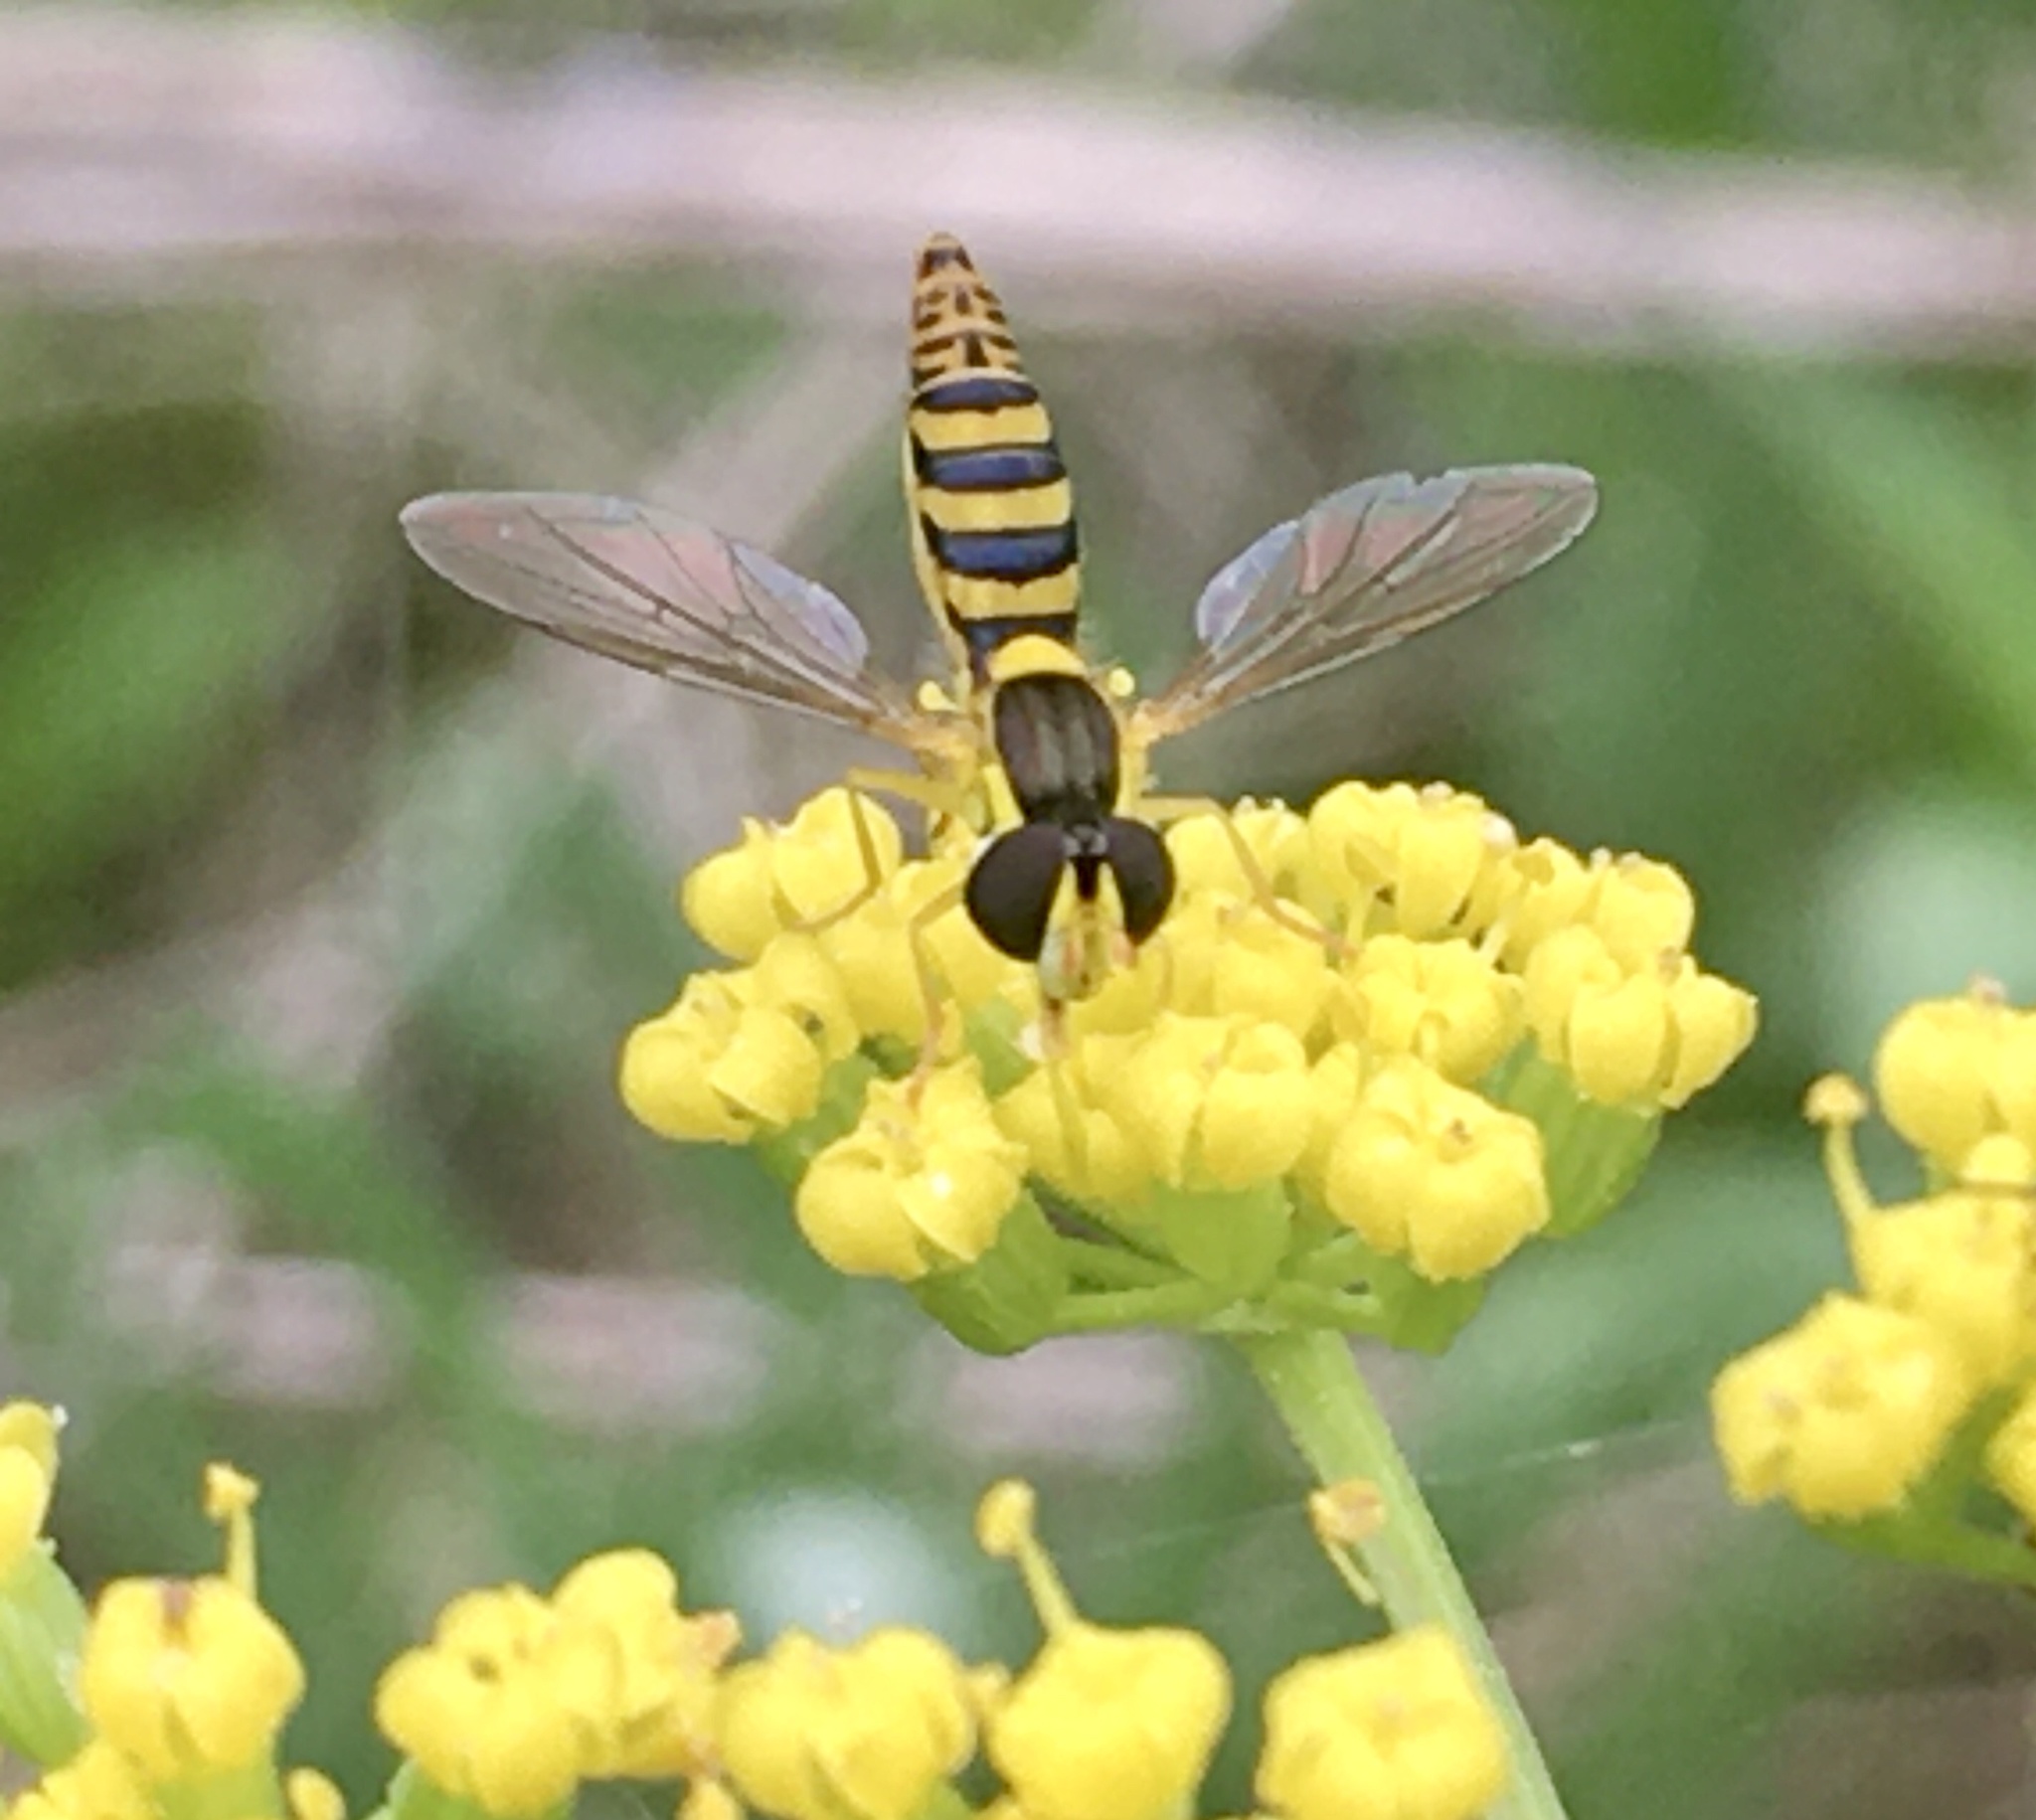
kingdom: Animalia
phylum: Arthropoda
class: Insecta
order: Diptera
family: Syrphidae
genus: Sphaerophoria
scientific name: Sphaerophoria
